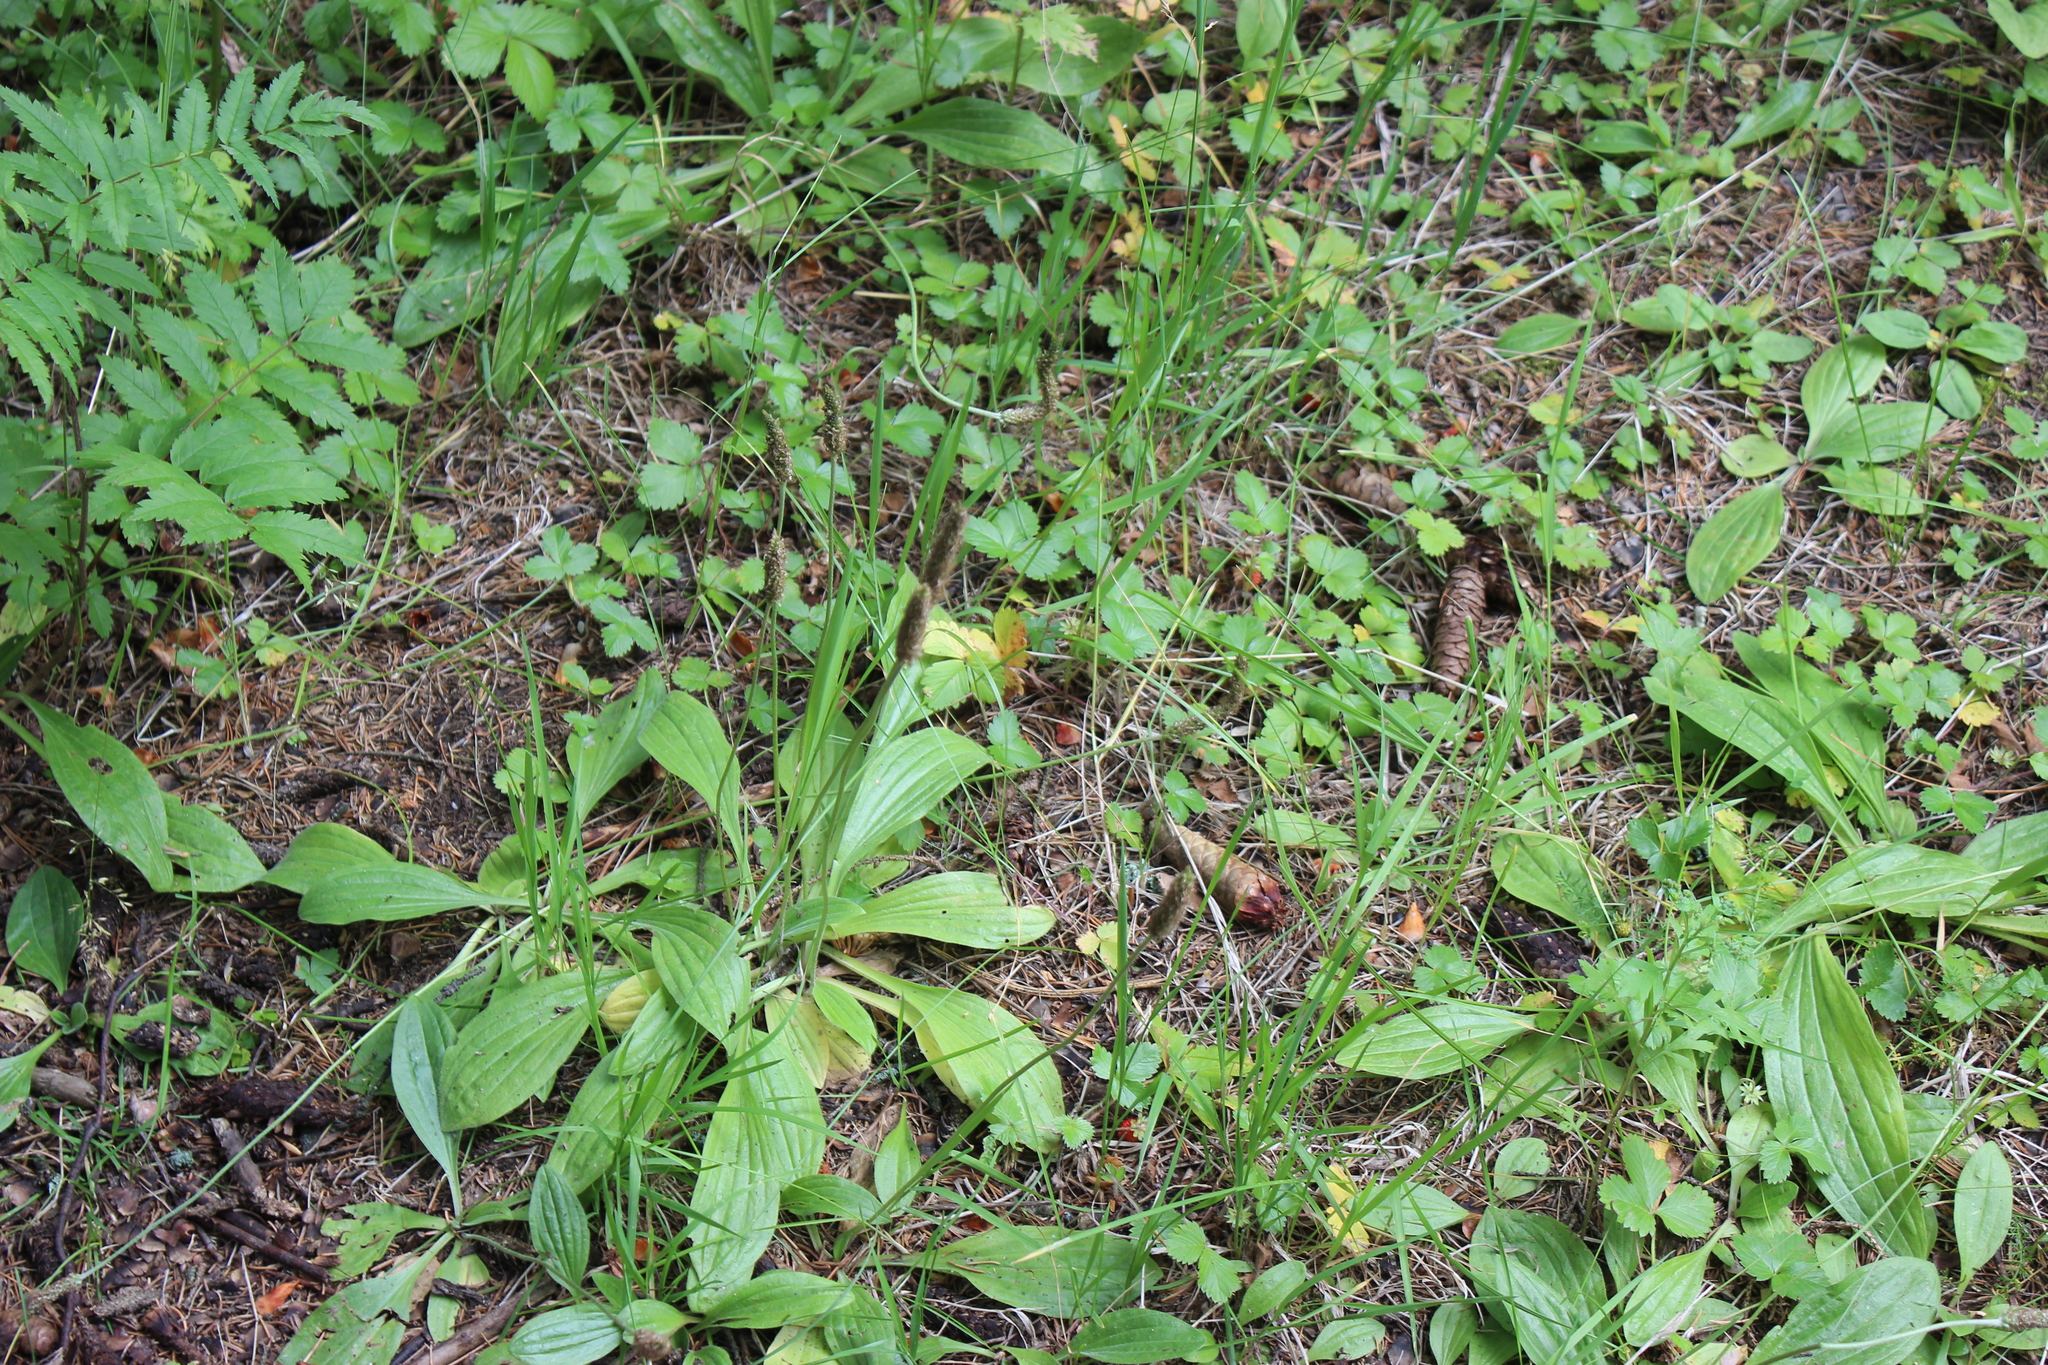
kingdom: Plantae
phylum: Tracheophyta
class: Magnoliopsida
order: Lamiales
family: Plantaginaceae
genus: Plantago
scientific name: Plantago media
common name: Hoary plantain
